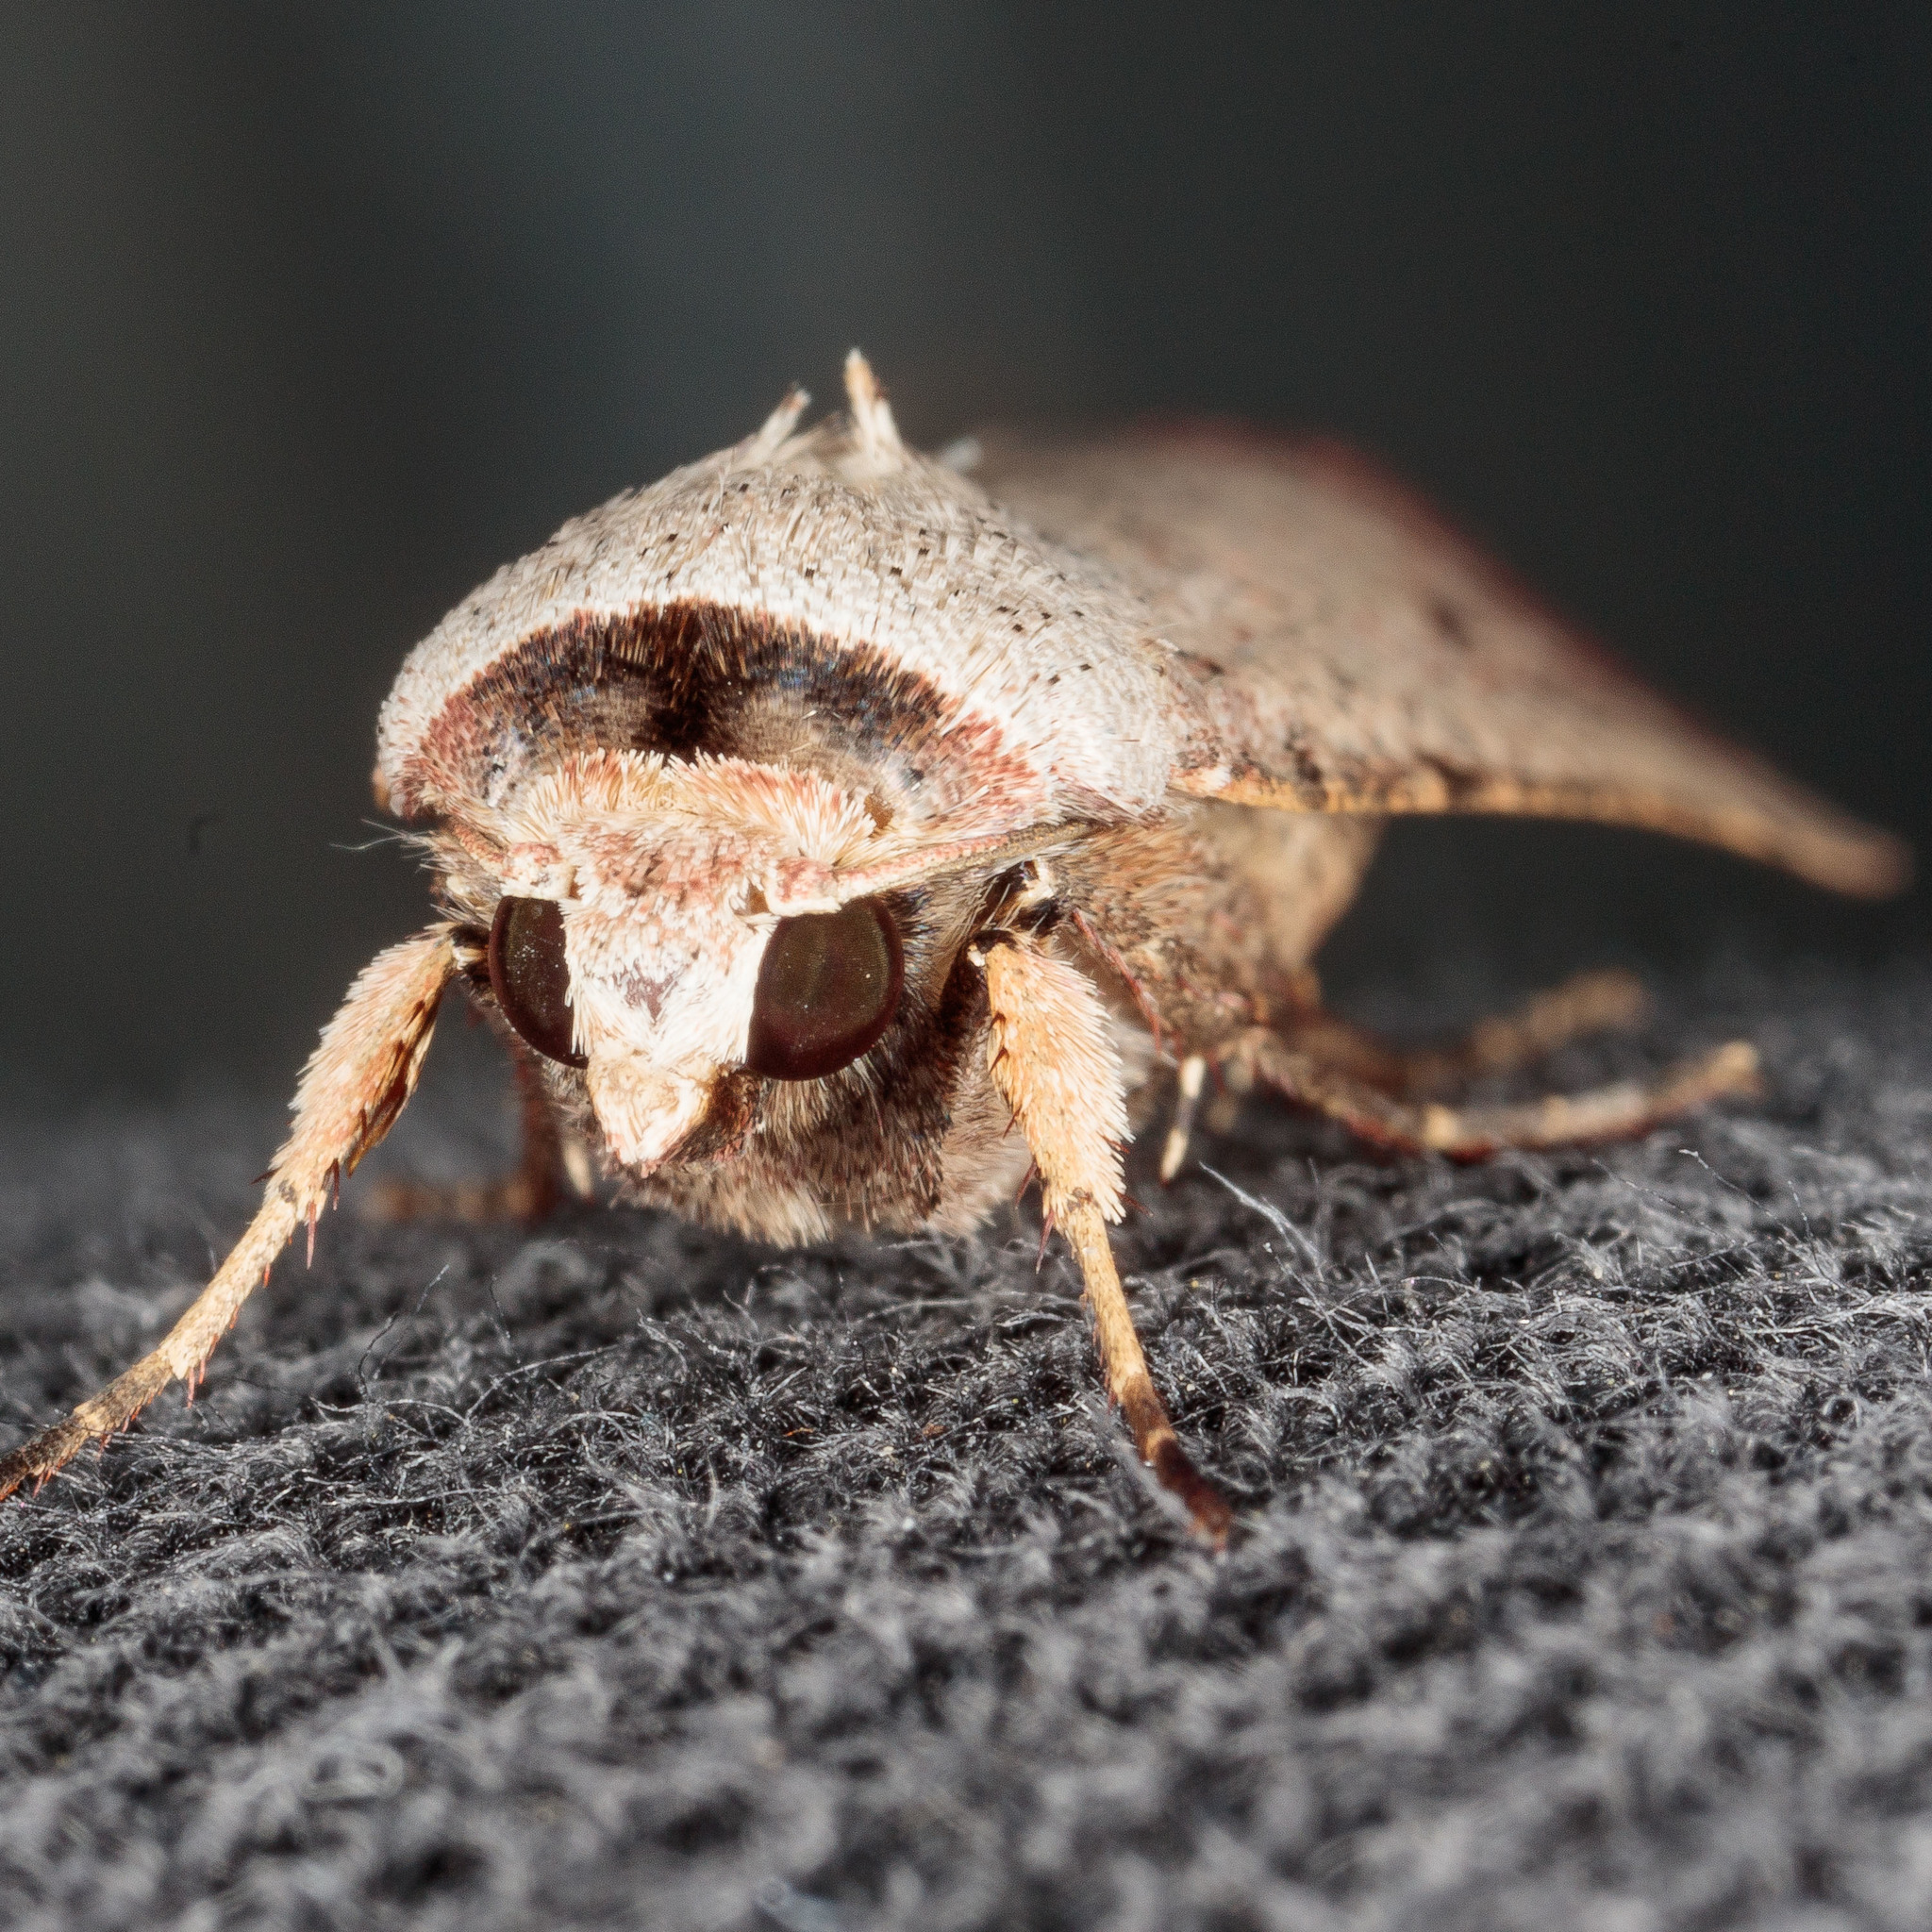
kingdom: Animalia
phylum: Arthropoda
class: Insecta
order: Lepidoptera
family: Noctuidae
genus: Anicla
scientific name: Anicla infecta
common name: Green cutworm
